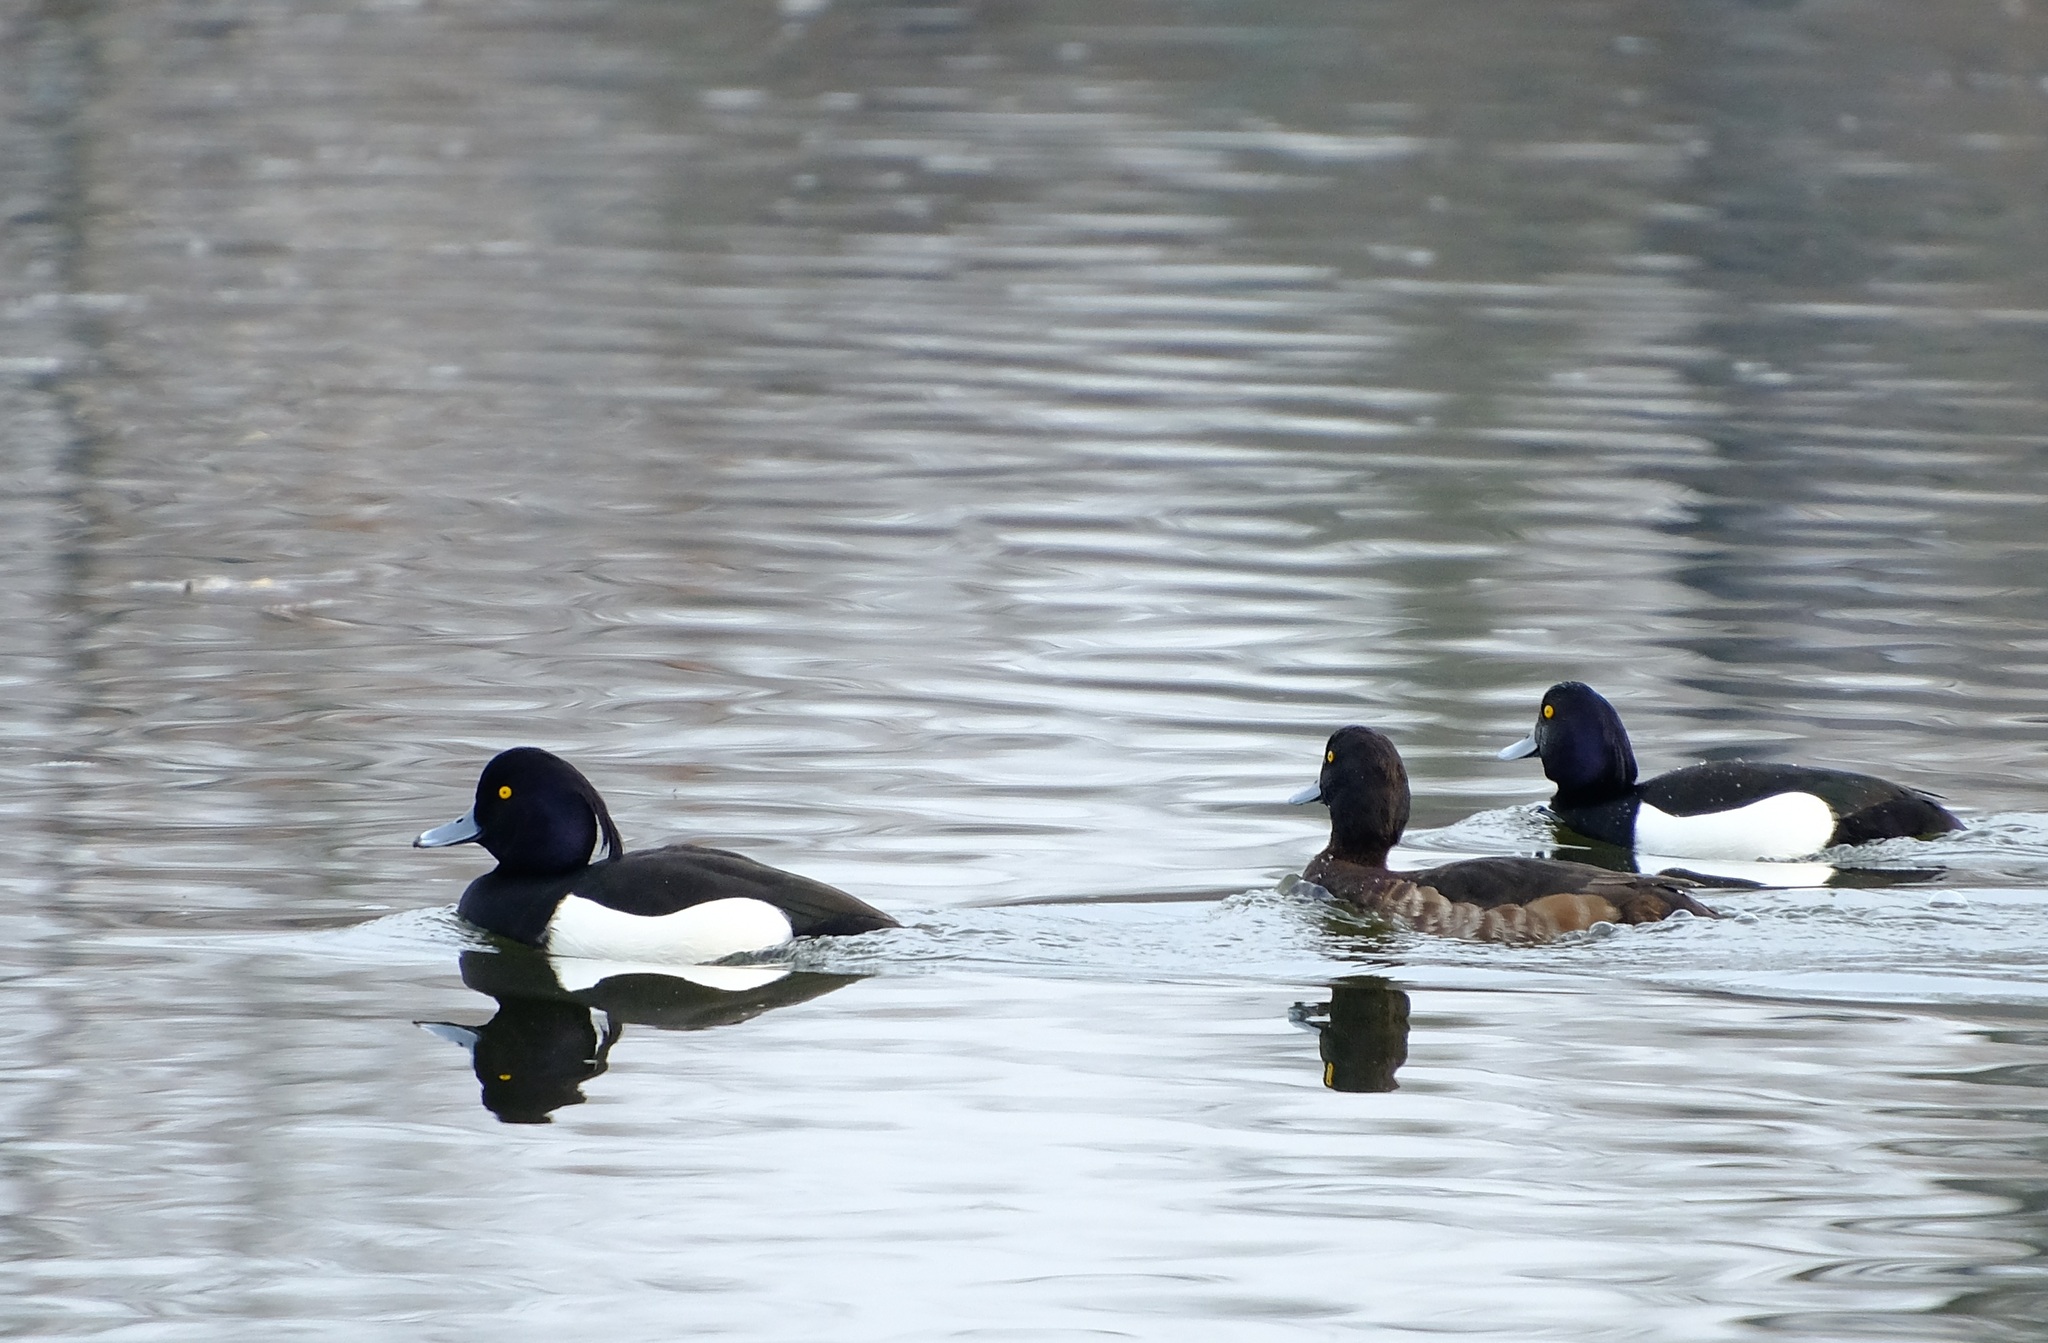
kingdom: Animalia
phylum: Chordata
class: Aves
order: Anseriformes
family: Anatidae
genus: Aythya
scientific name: Aythya fuligula
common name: Tufted duck
